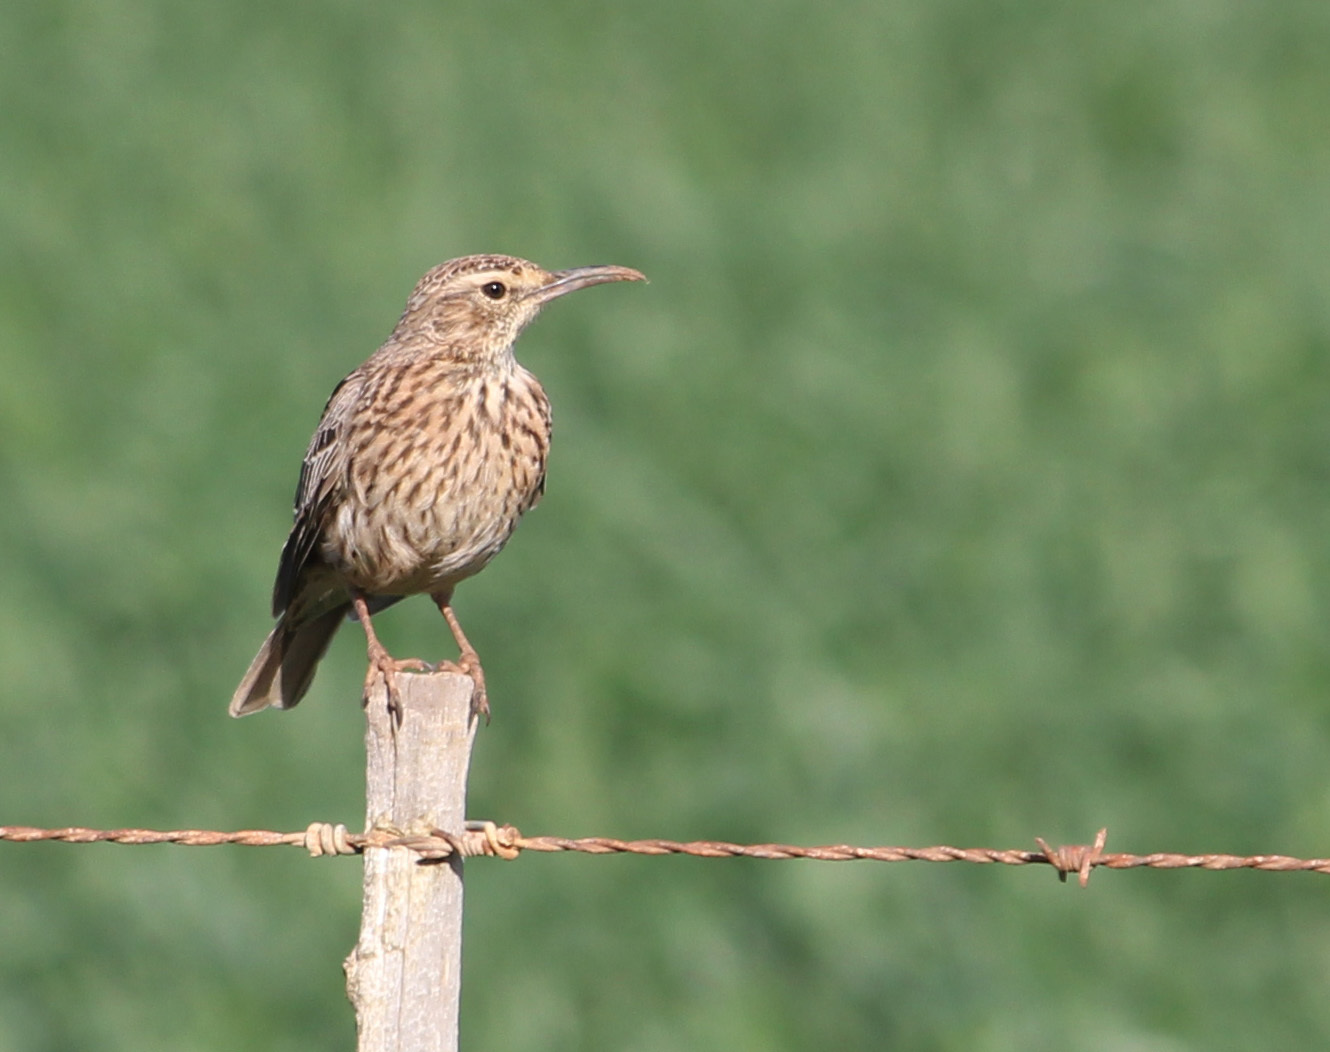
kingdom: Animalia
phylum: Chordata
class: Aves
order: Passeriformes
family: Alaudidae
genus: Certhilauda
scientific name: Certhilauda curvirostris
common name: Cape long-billed lark
